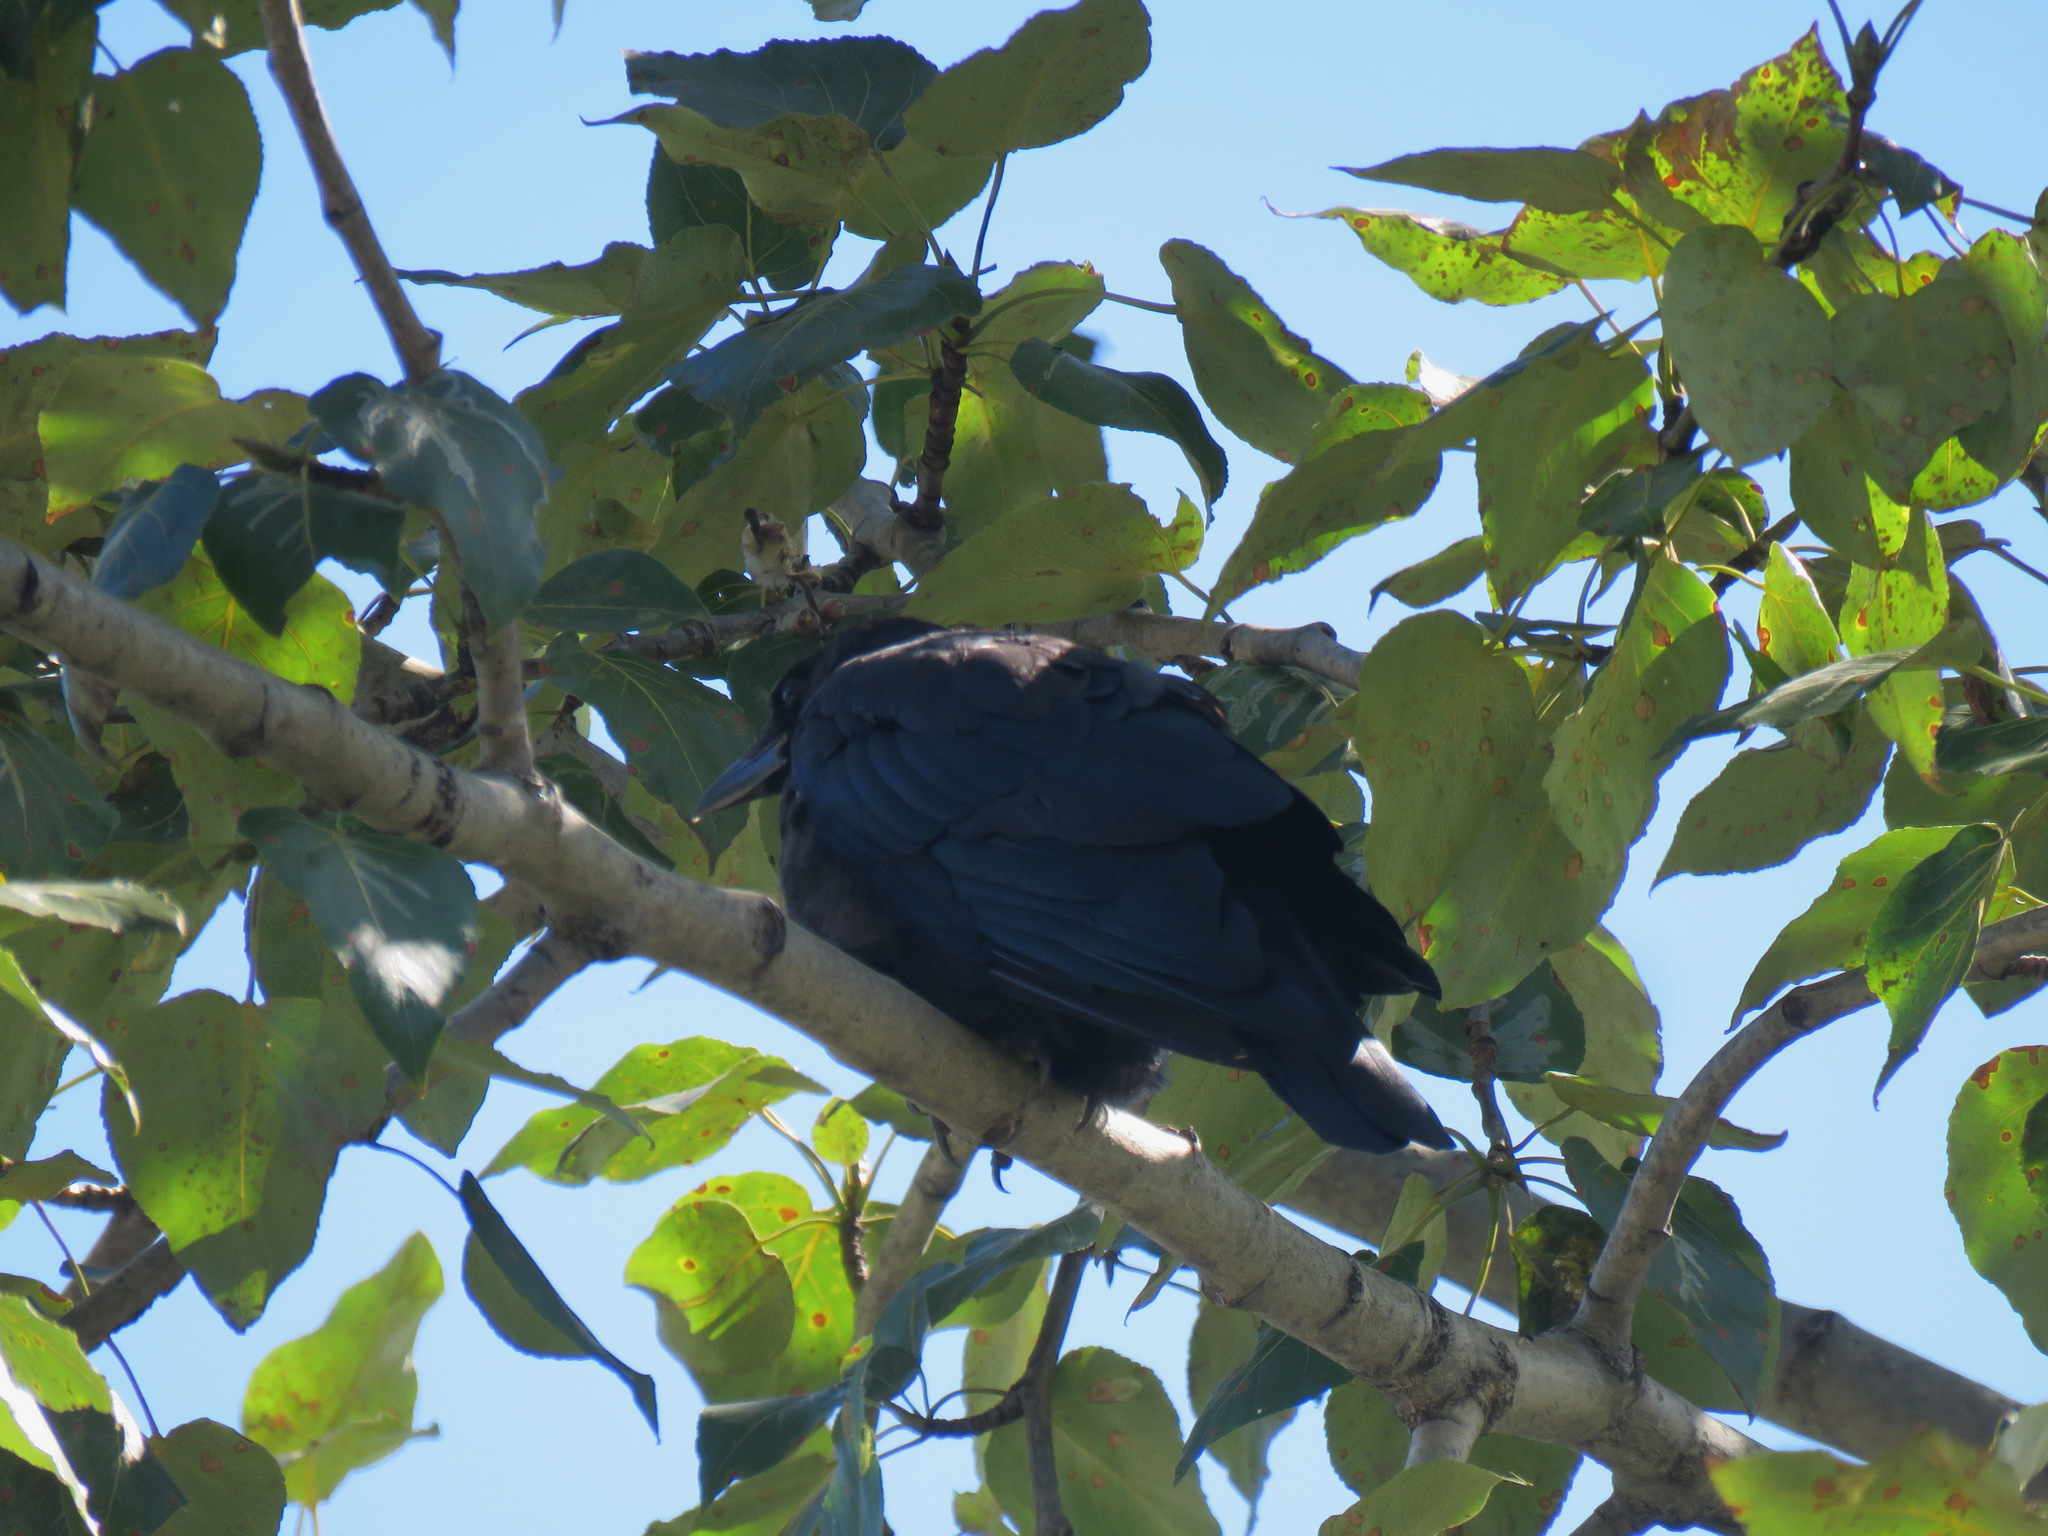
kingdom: Animalia
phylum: Chordata
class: Aves
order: Passeriformes
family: Corvidae
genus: Corvus
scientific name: Corvus brachyrhynchos
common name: American crow
